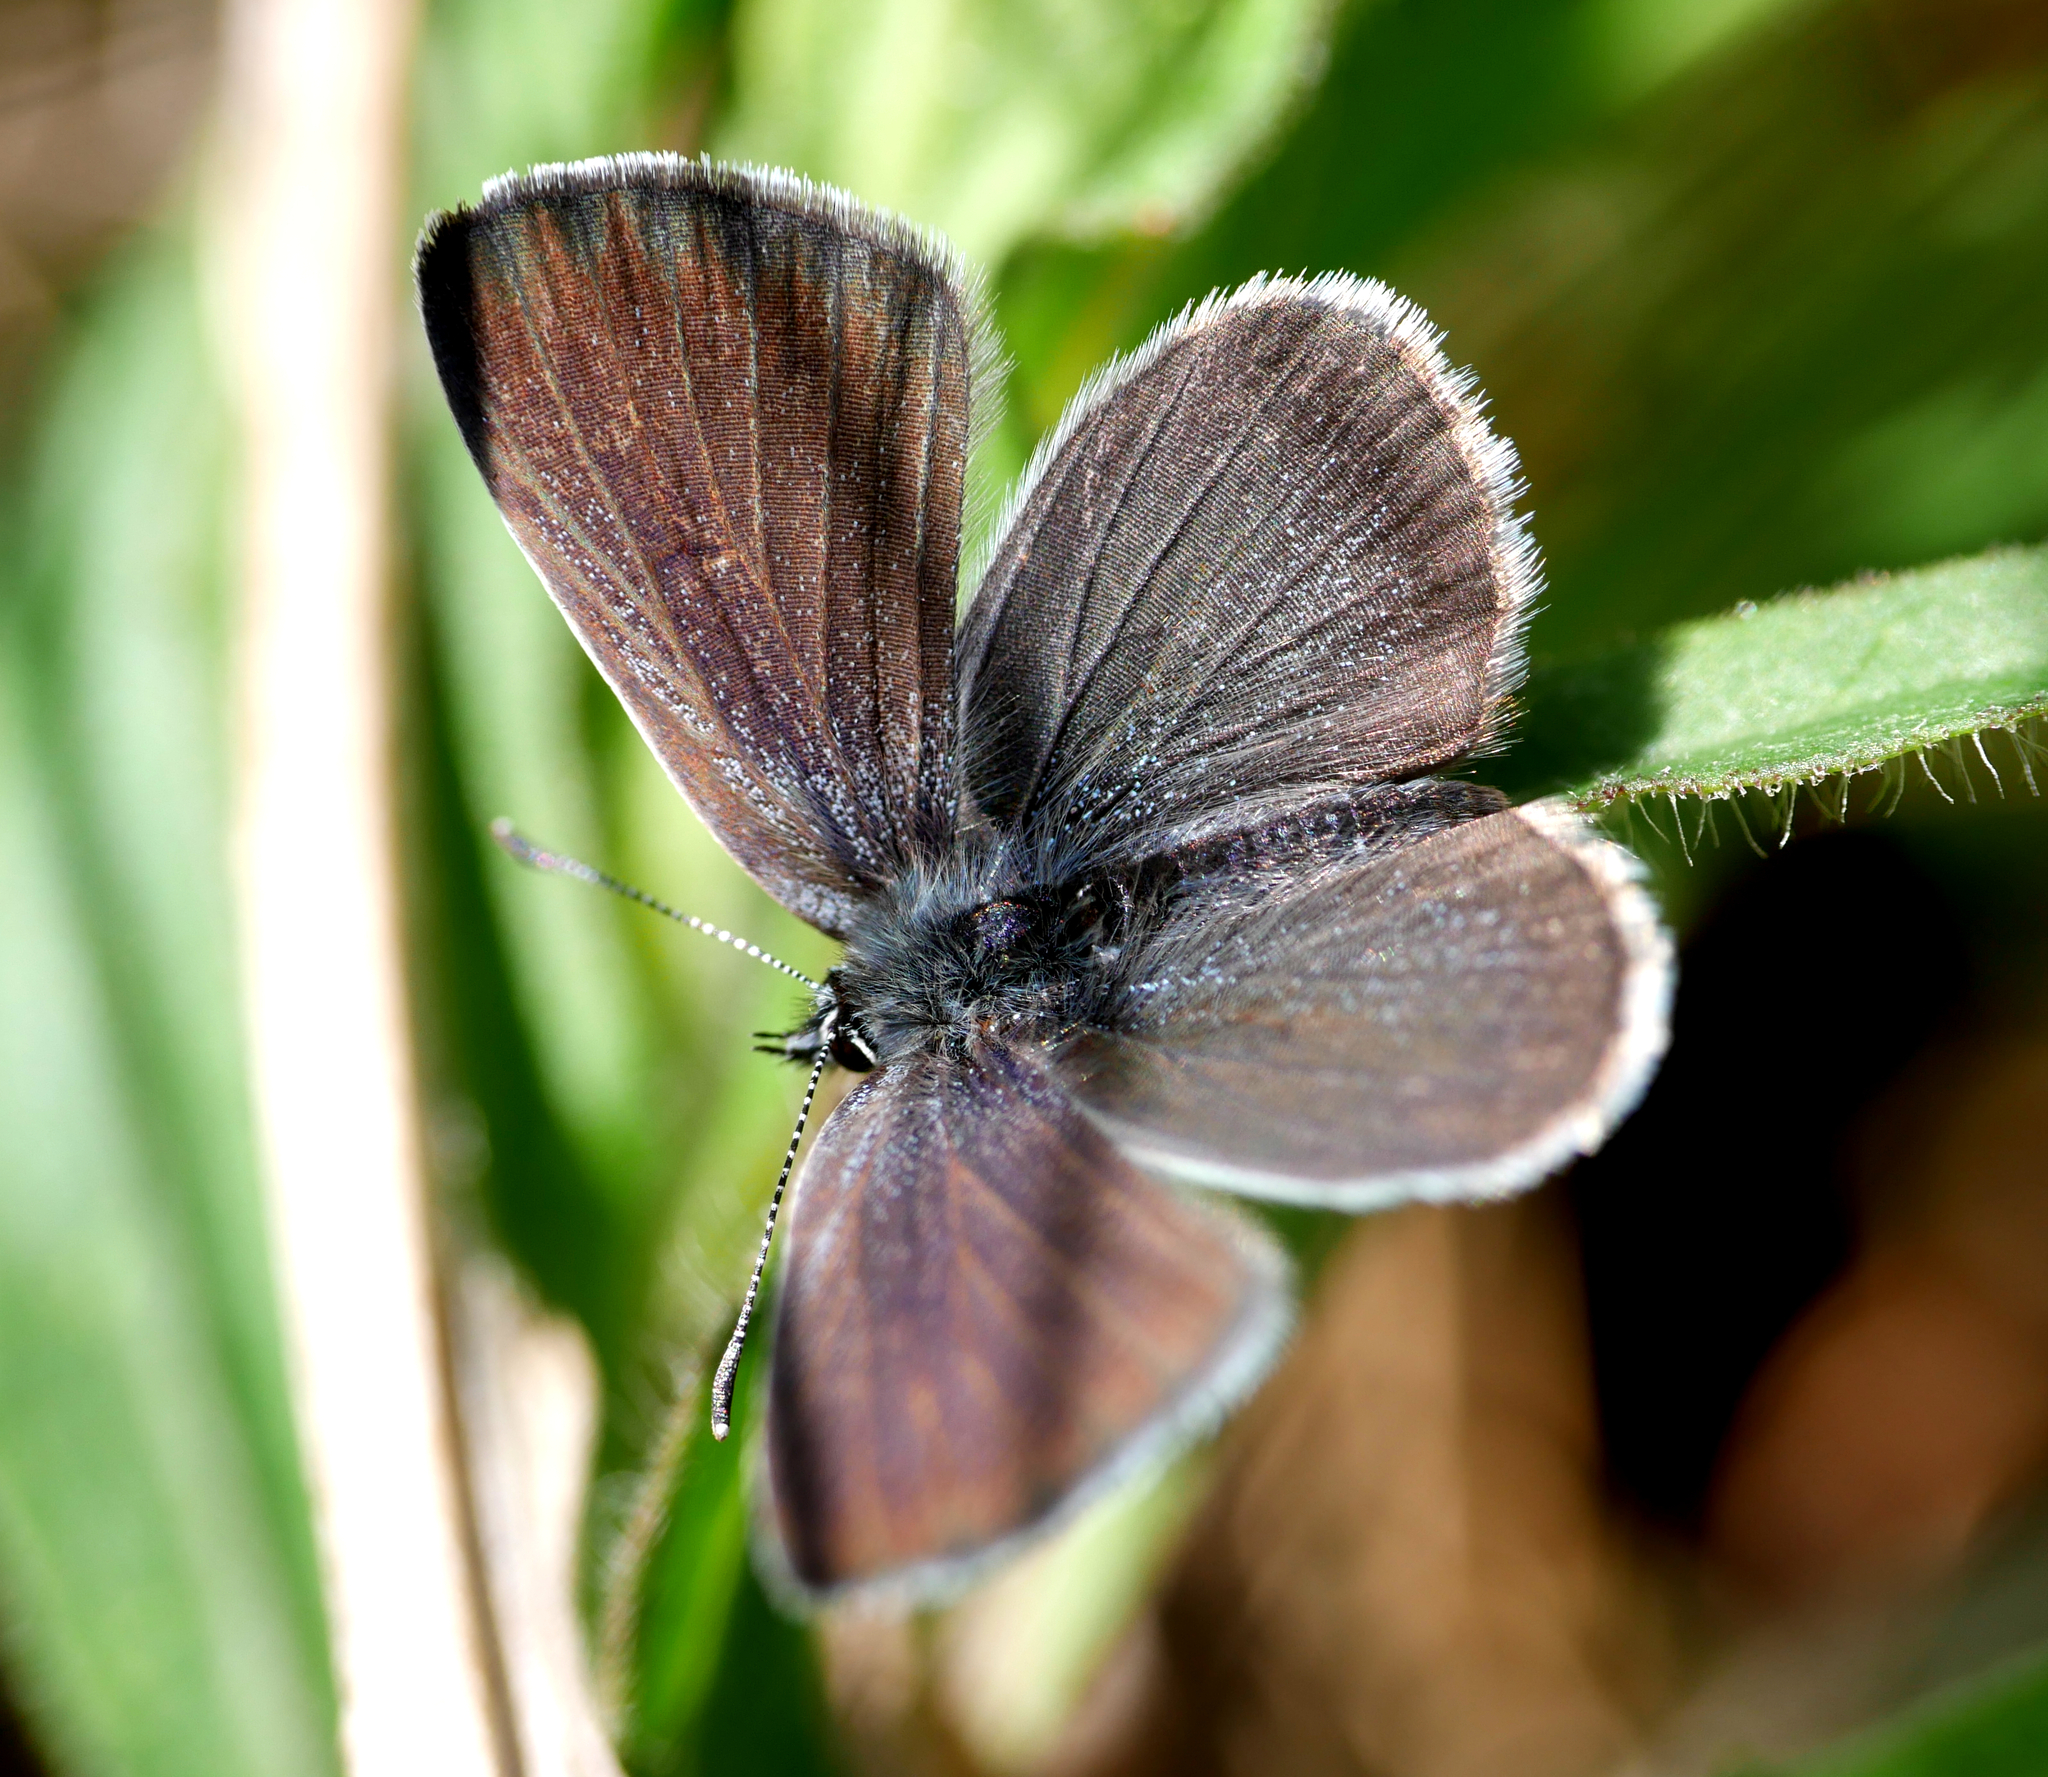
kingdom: Animalia
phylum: Arthropoda
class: Insecta
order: Lepidoptera
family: Lycaenidae
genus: Cupido
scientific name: Cupido minimus
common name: Small blue
